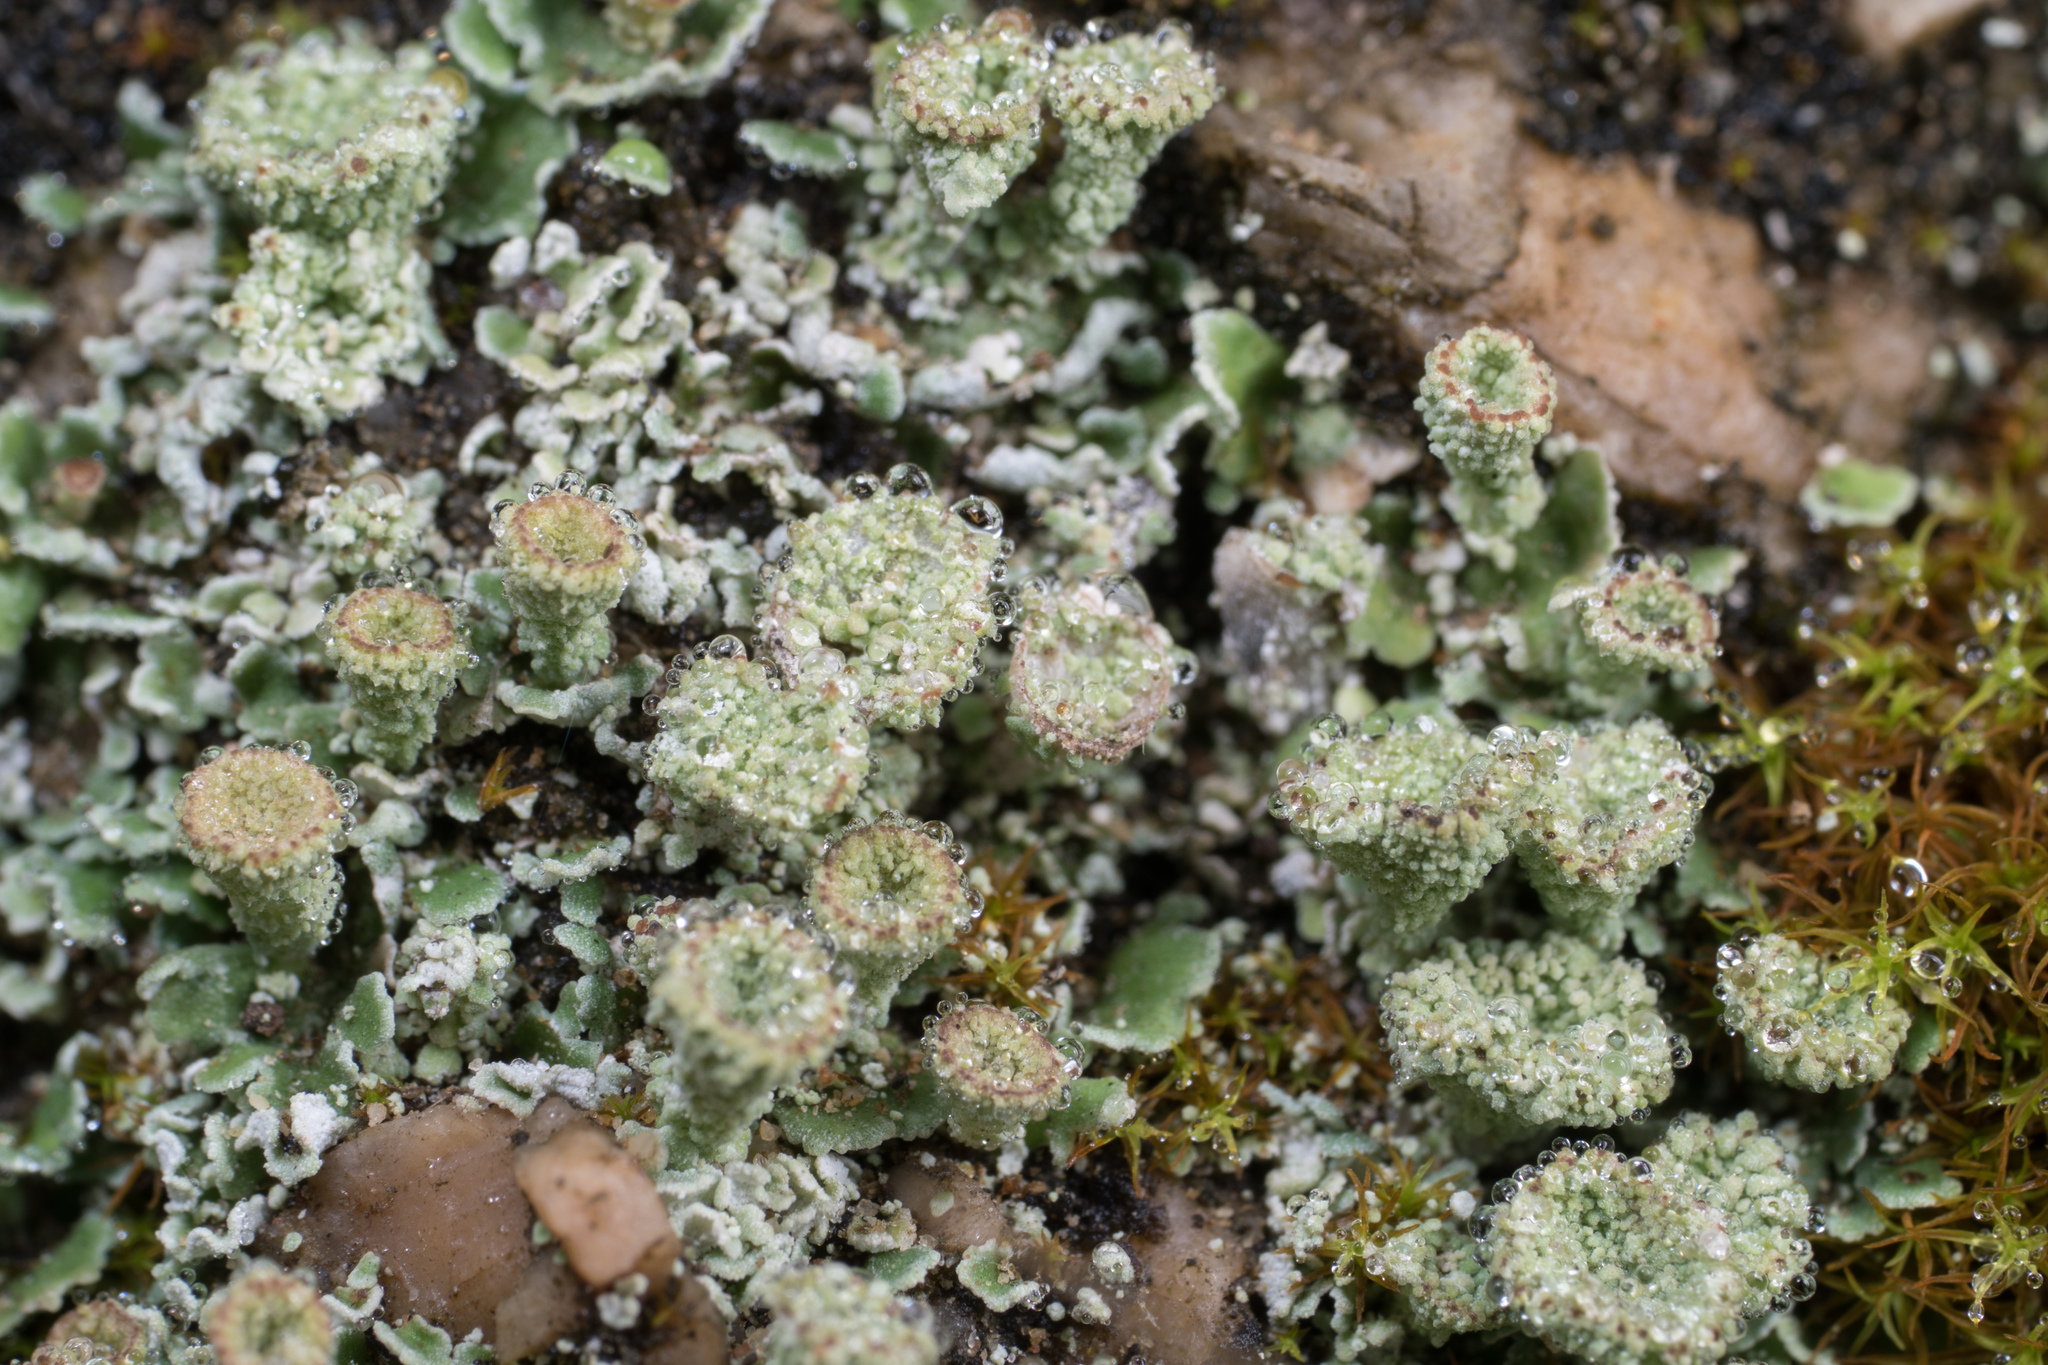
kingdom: Fungi
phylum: Ascomycota
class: Lecanoromycetes
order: Lecanorales
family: Cladoniaceae
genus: Cladonia
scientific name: Cladonia
